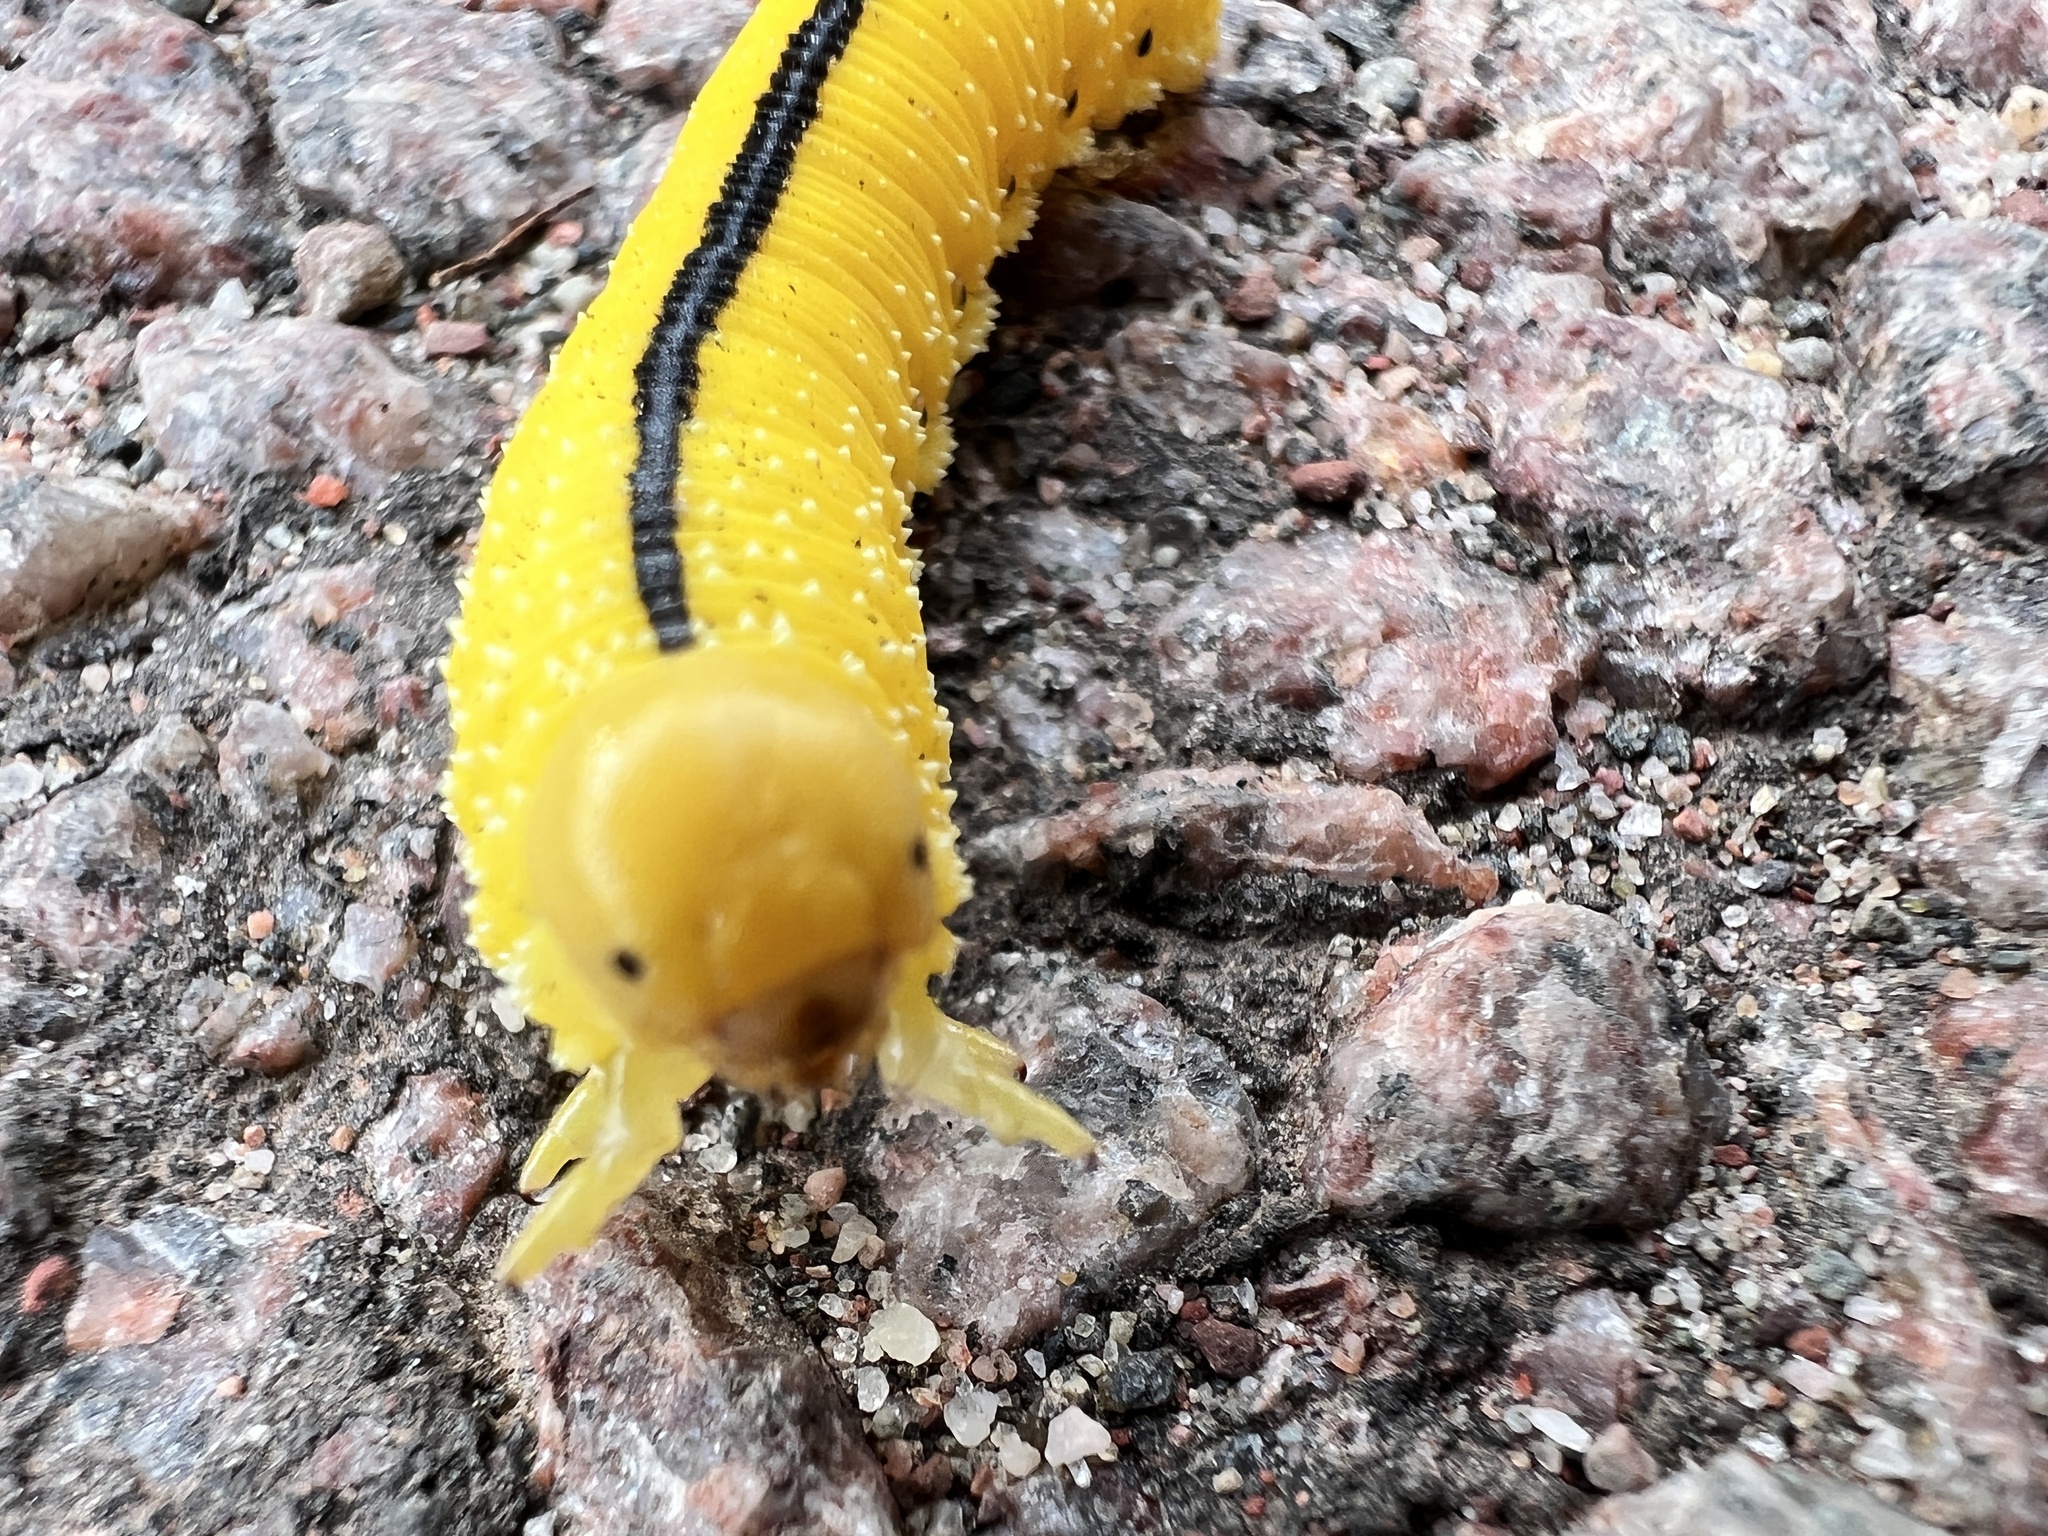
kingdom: Animalia
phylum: Arthropoda
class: Insecta
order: Hymenoptera
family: Cimbicidae
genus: Cimbex
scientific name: Cimbex americana
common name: Elm sawfly
